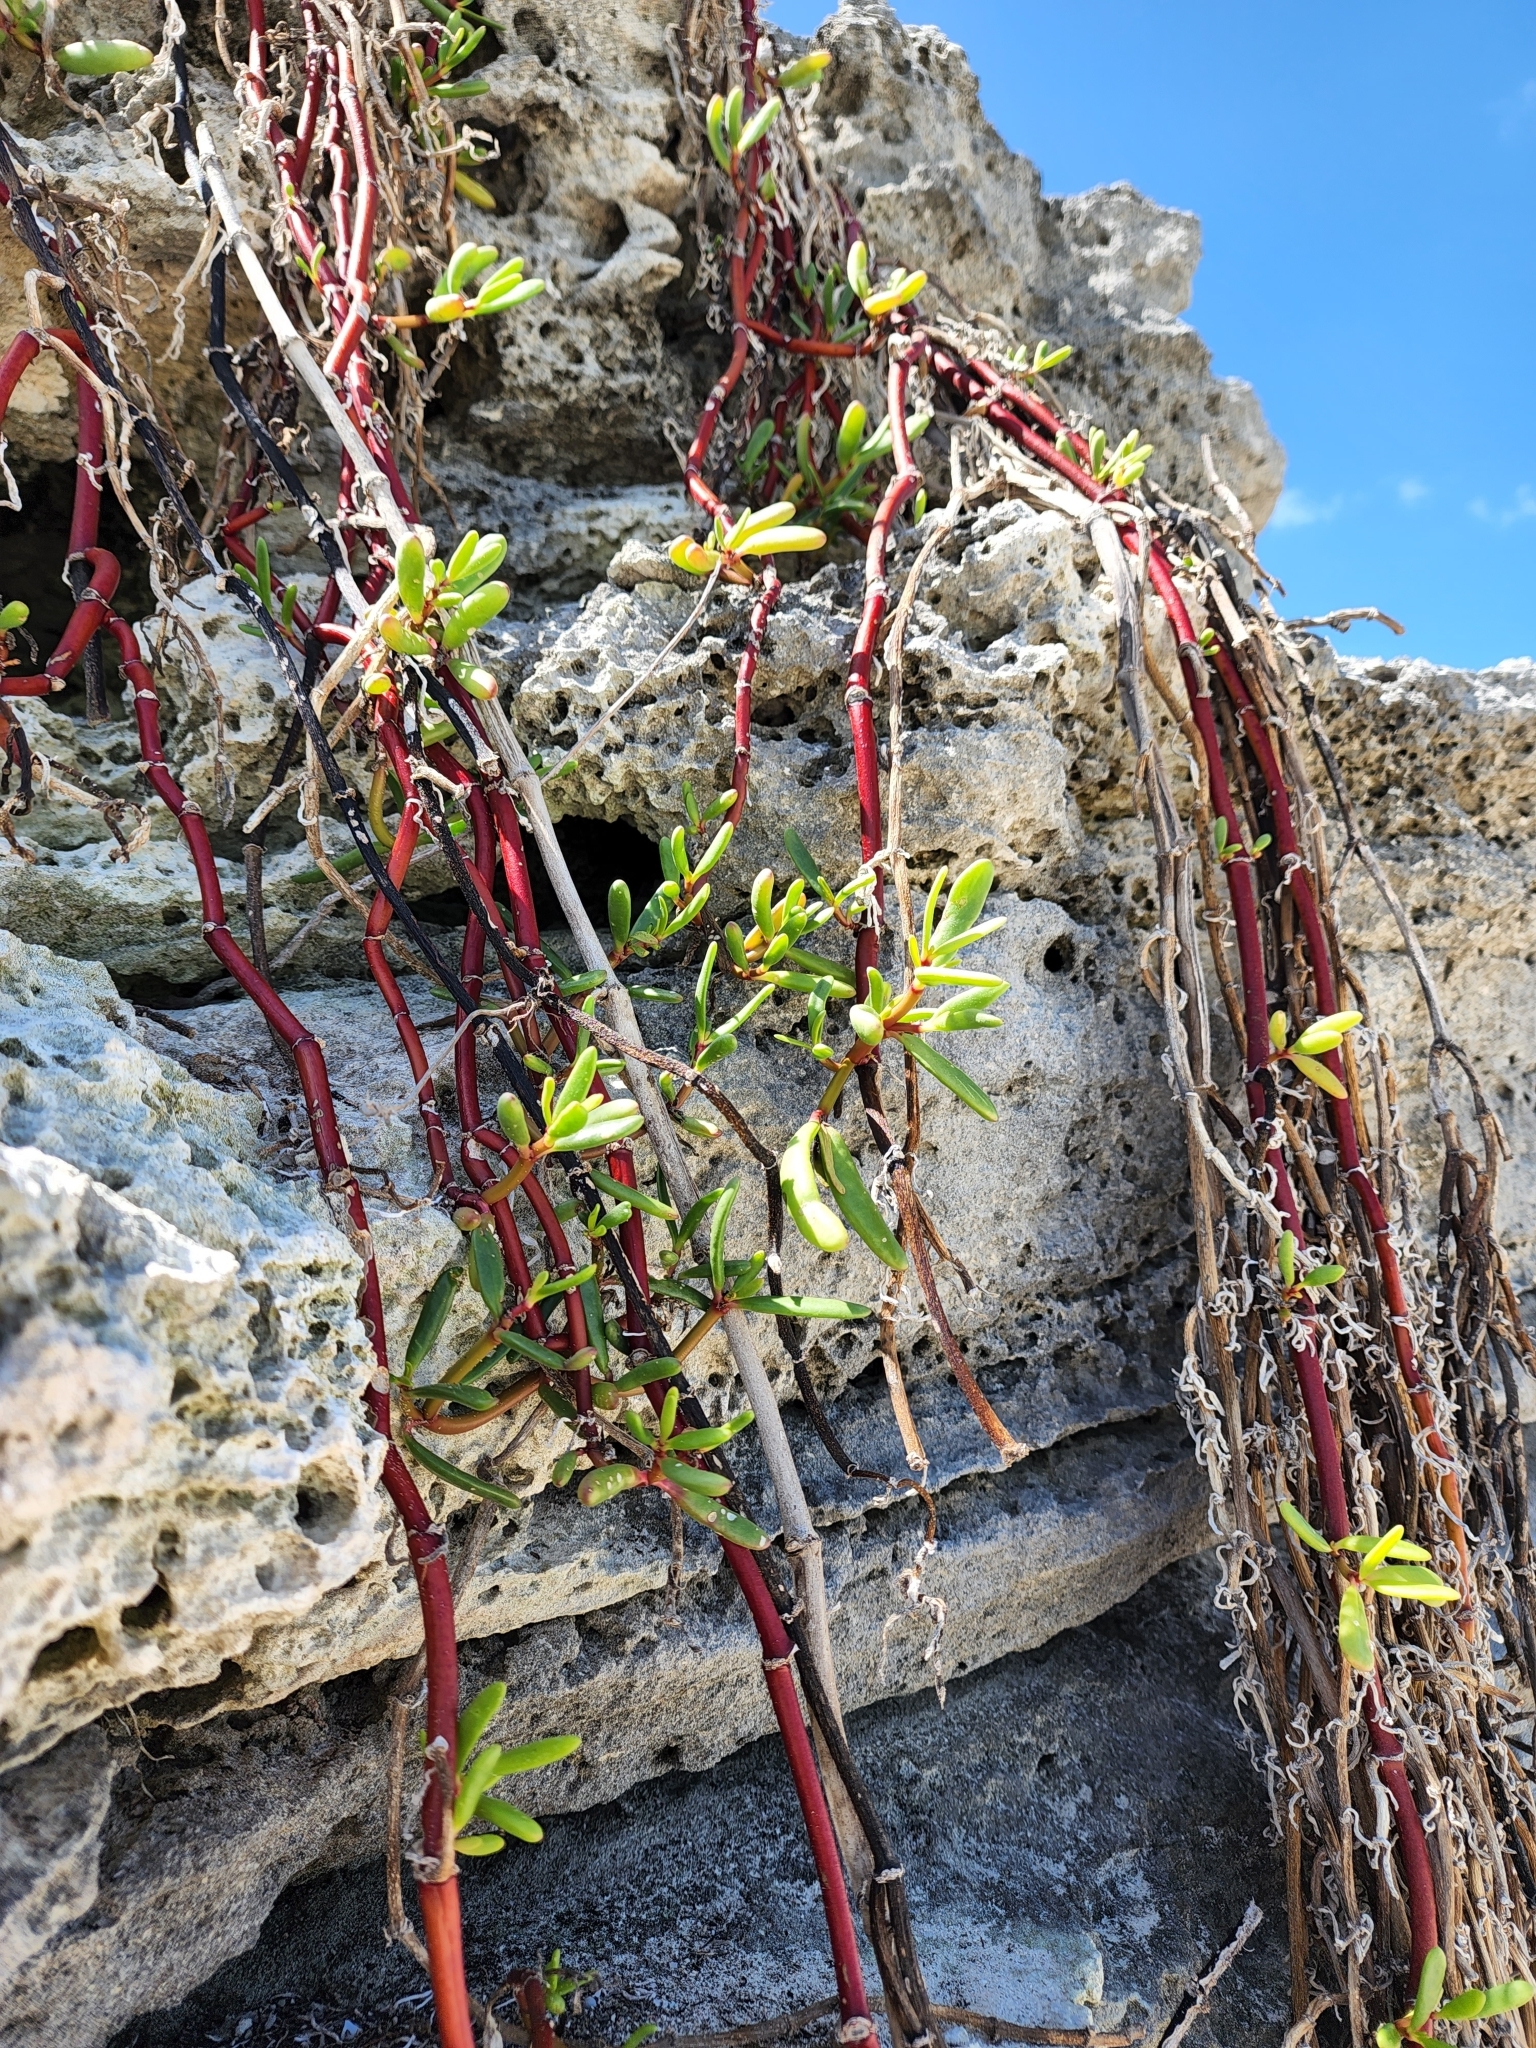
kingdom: Plantae
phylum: Tracheophyta
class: Magnoliopsida
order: Caryophyllales
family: Aizoaceae
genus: Sesuvium
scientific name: Sesuvium portulacastrum
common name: Sea-purslane
